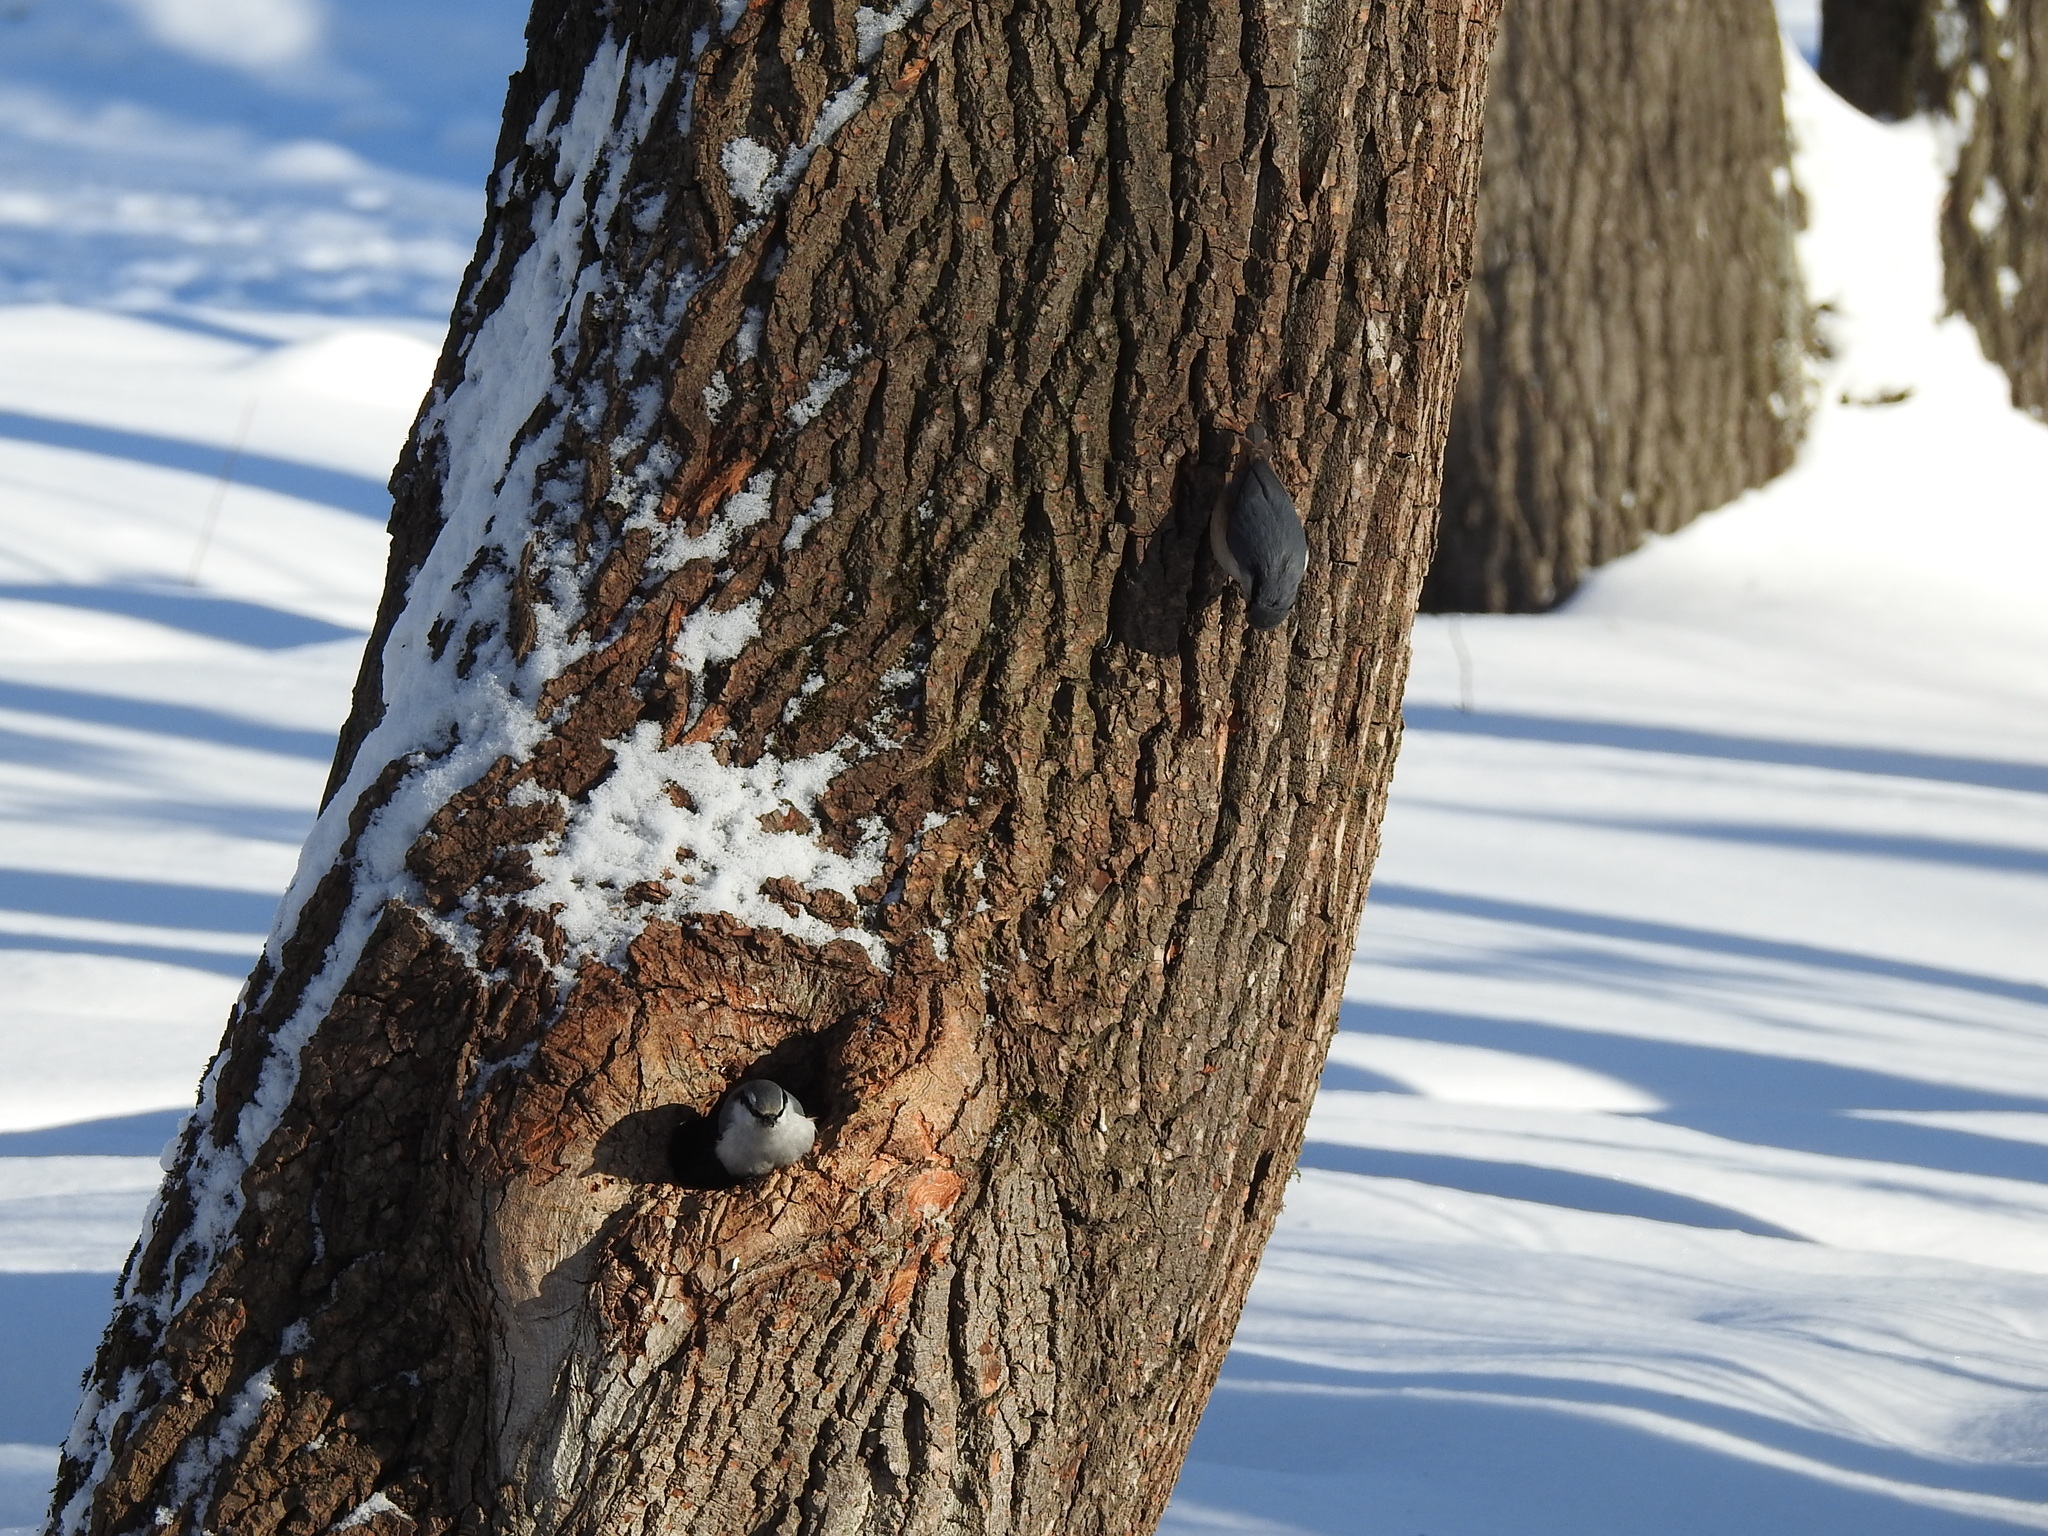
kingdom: Animalia
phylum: Chordata
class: Aves
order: Passeriformes
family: Sittidae
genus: Sitta
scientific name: Sitta europaea
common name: Eurasian nuthatch
